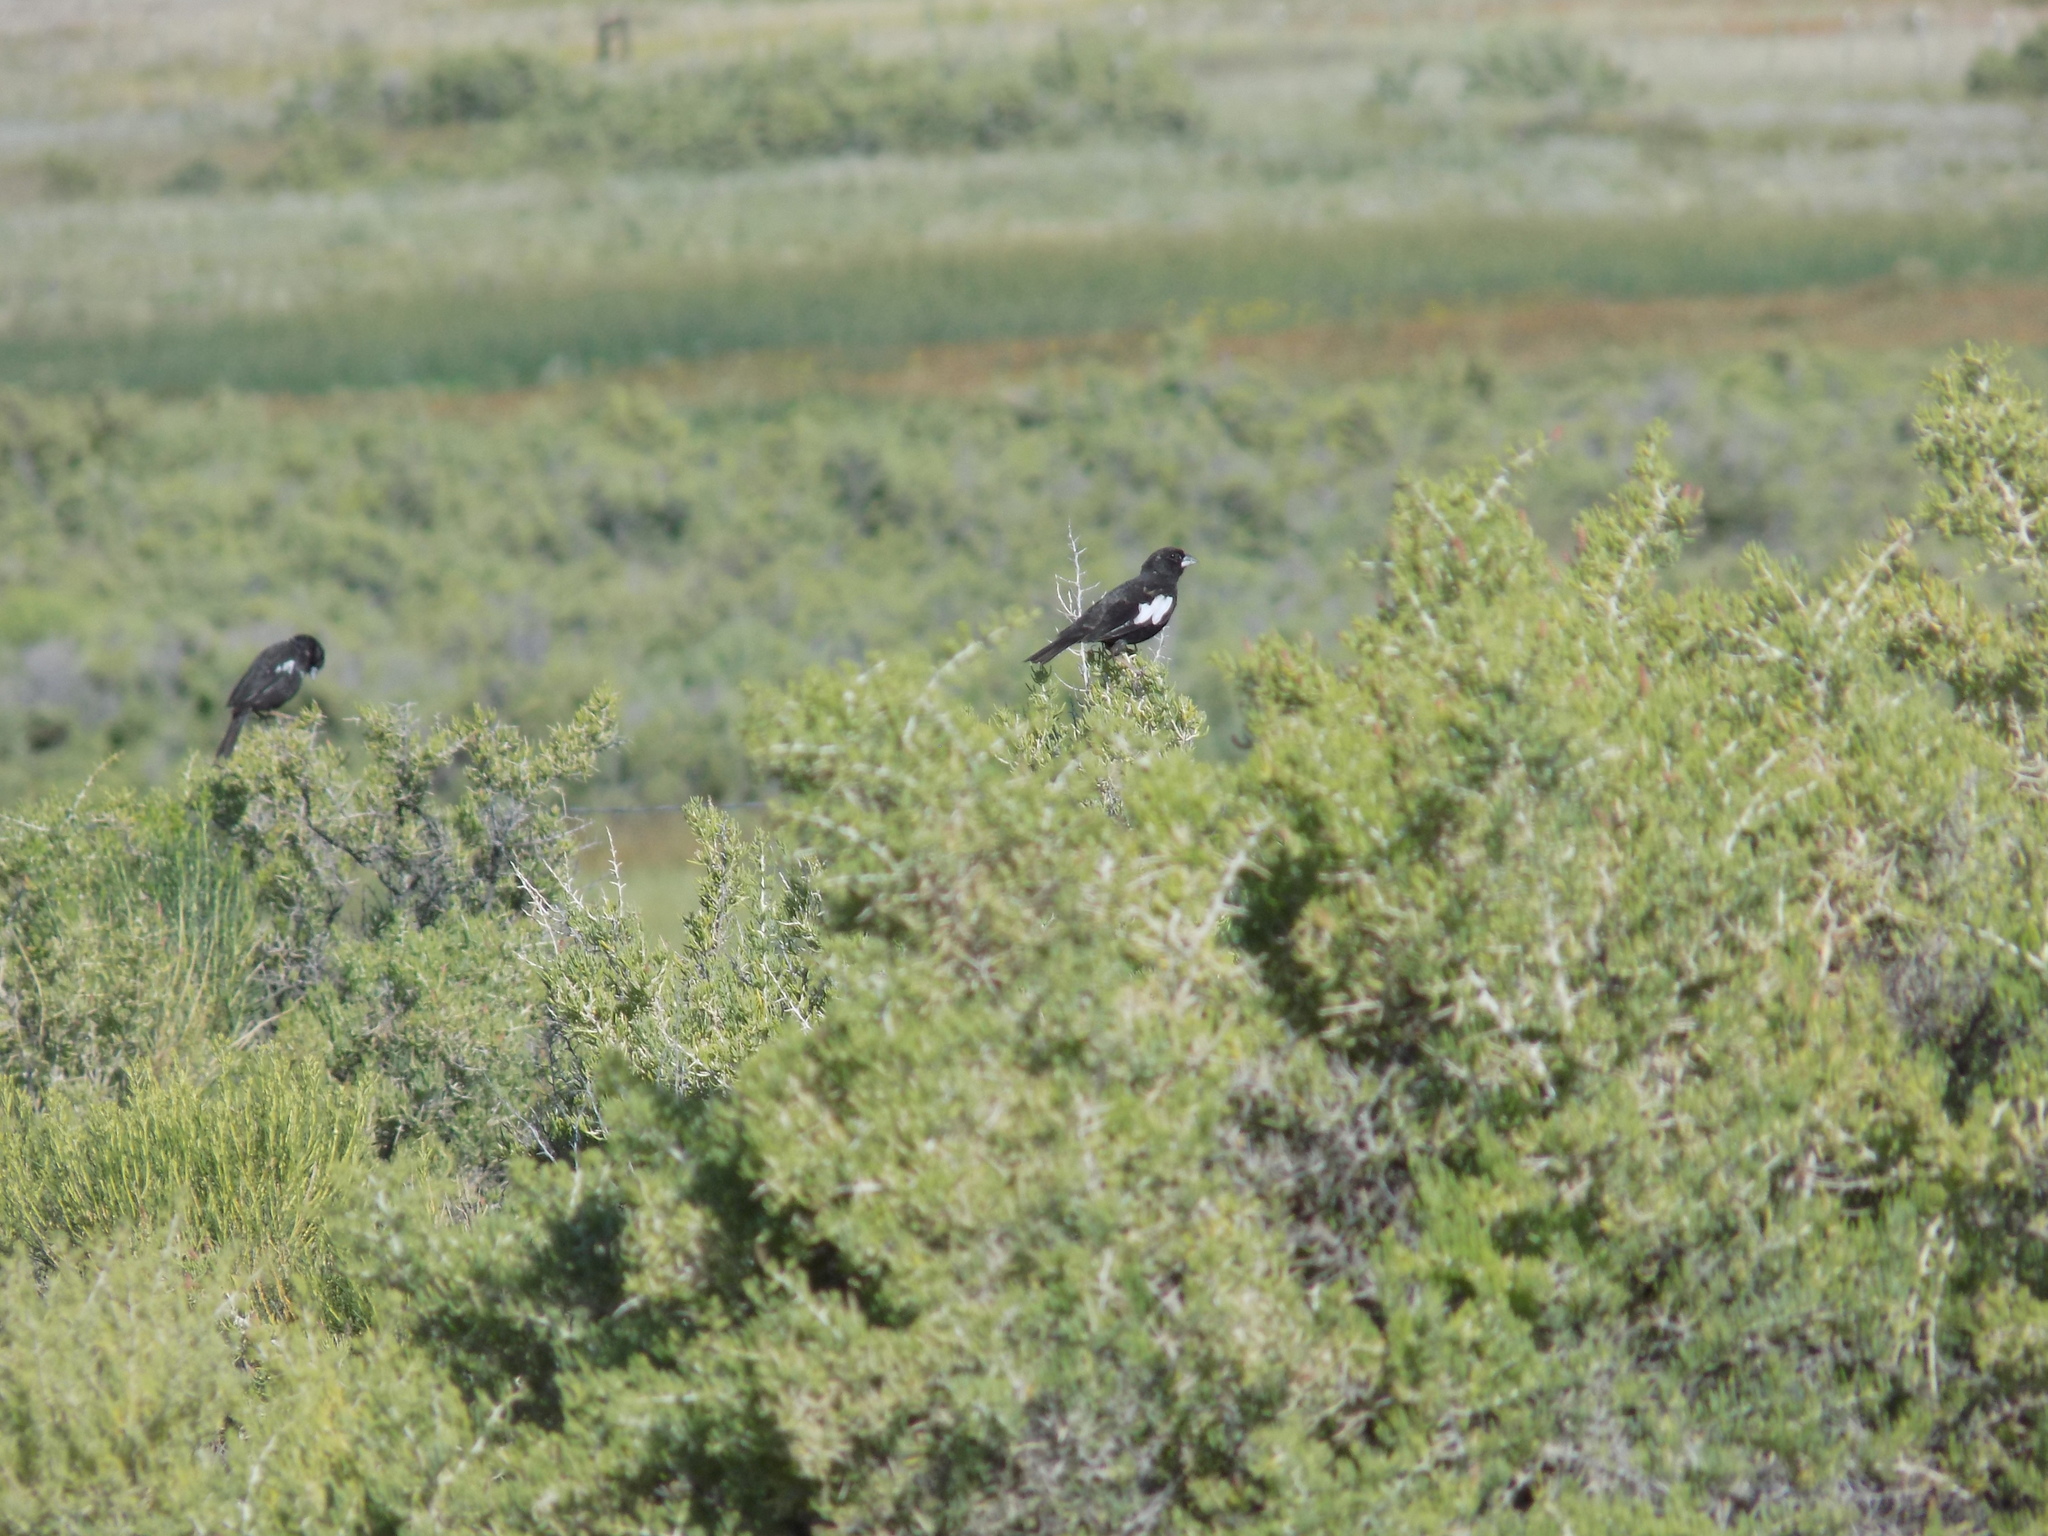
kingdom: Animalia
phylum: Chordata
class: Aves
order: Passeriformes
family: Passerellidae
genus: Calamospiza
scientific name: Calamospiza melanocorys
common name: Lark bunting
